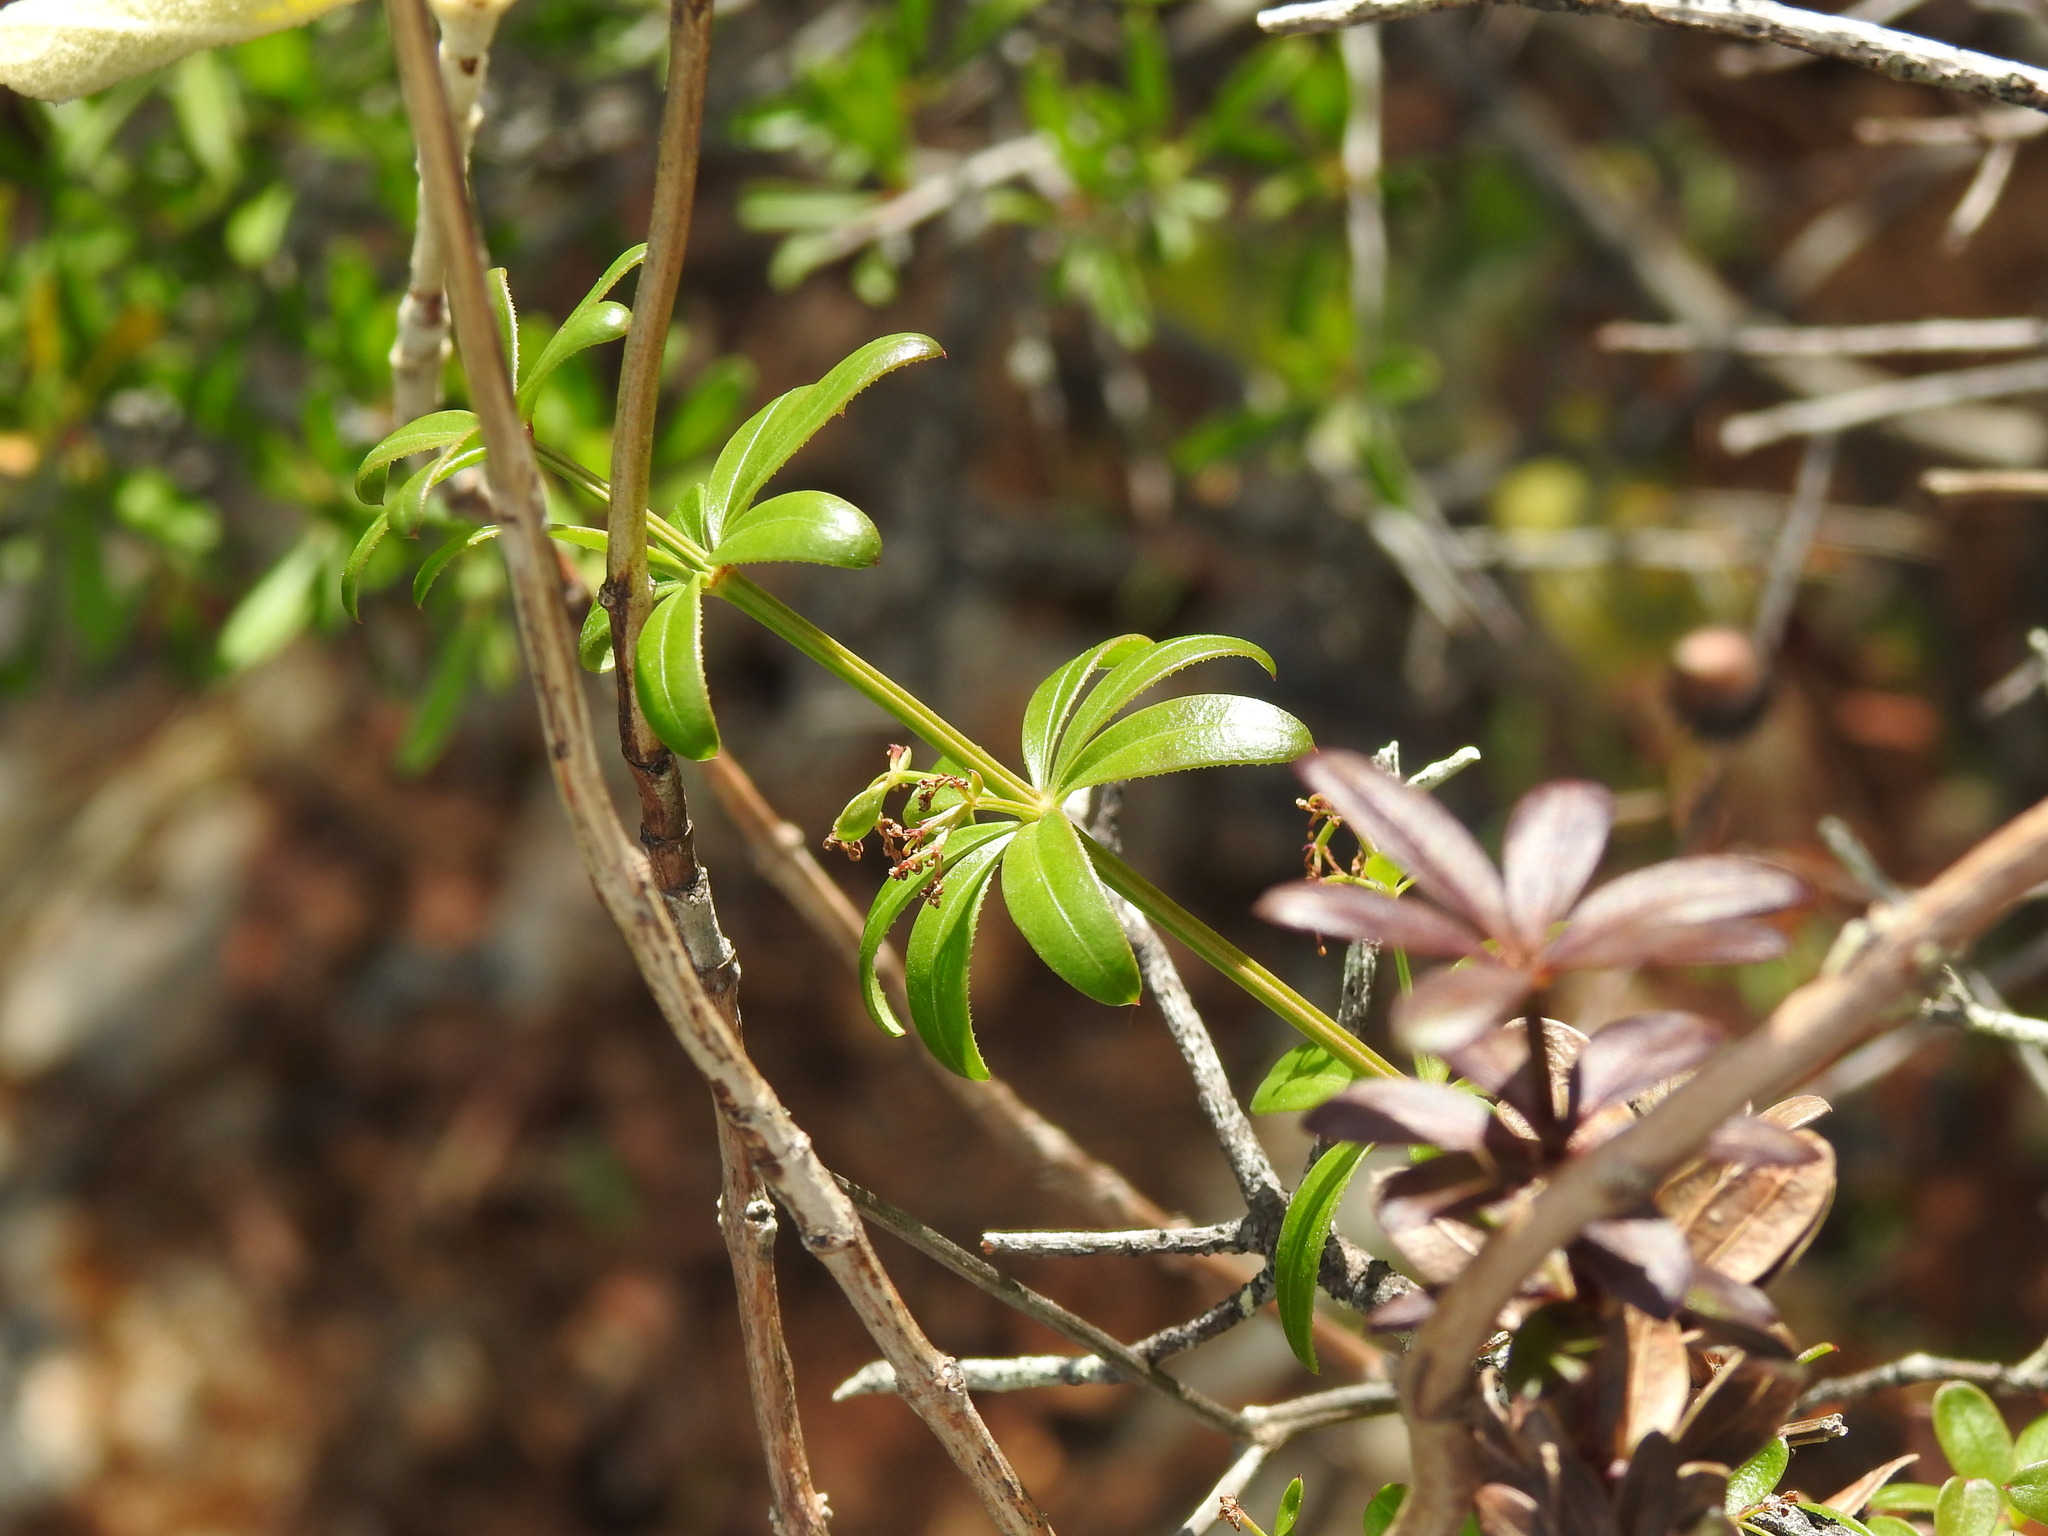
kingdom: Plantae
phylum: Tracheophyta
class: Magnoliopsida
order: Gentianales
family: Rubiaceae
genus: Rubia
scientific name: Rubia peregrina
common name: Wild madder
